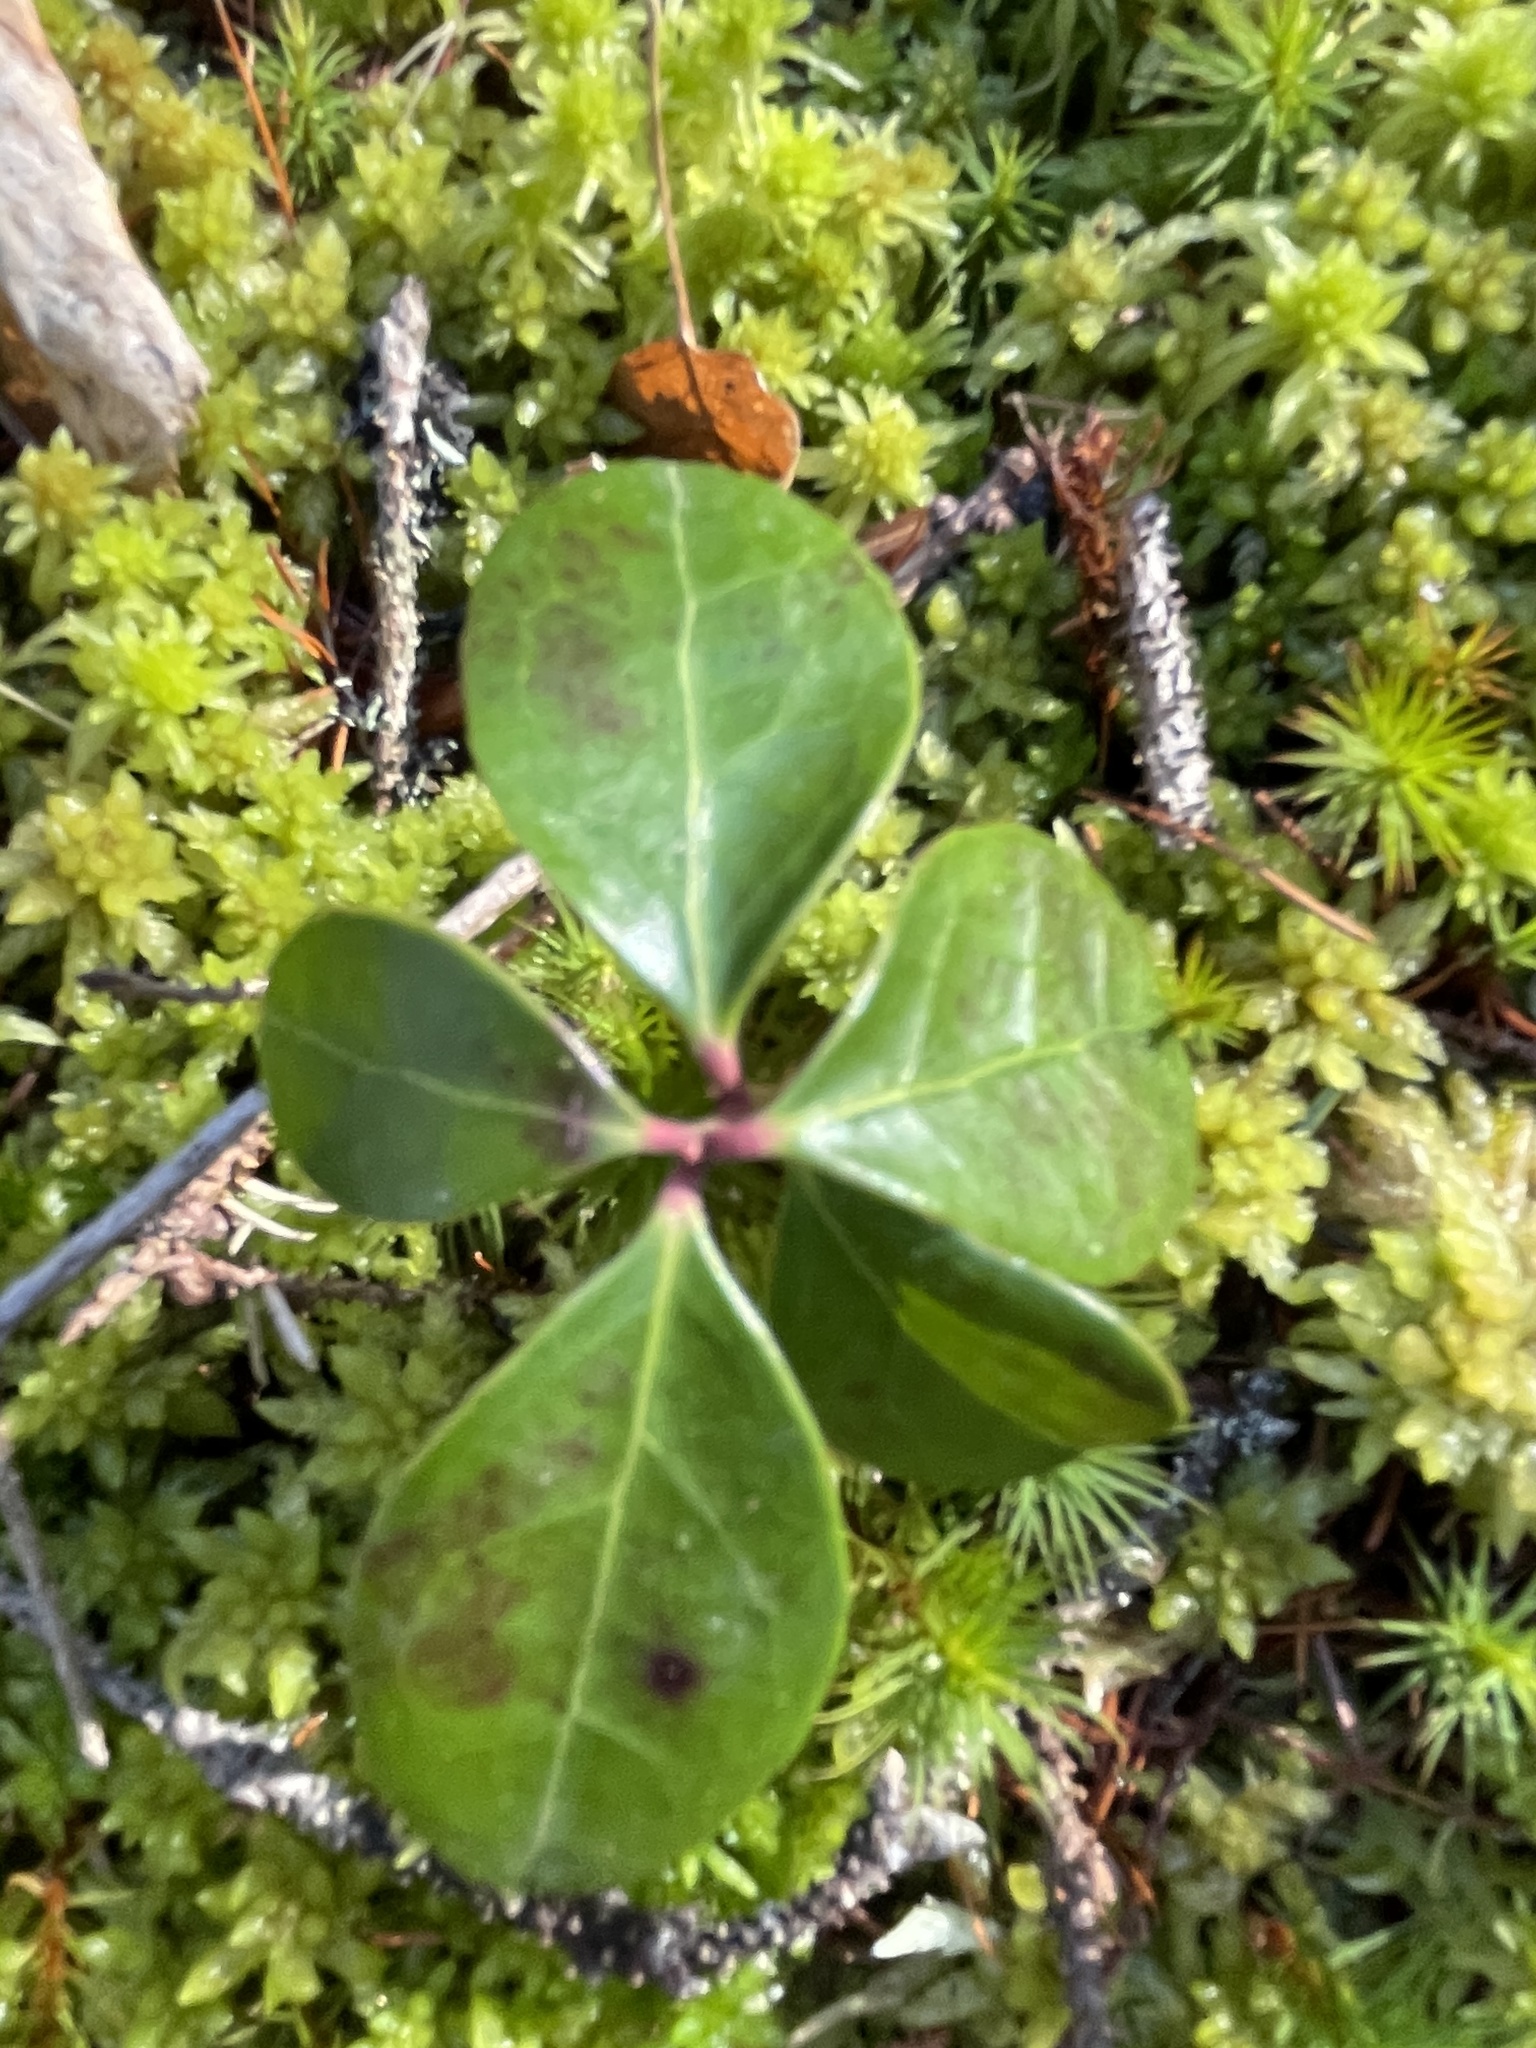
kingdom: Plantae
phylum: Tracheophyta
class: Magnoliopsida
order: Ericales
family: Ericaceae
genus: Gaultheria
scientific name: Gaultheria procumbens
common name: Checkerberry
